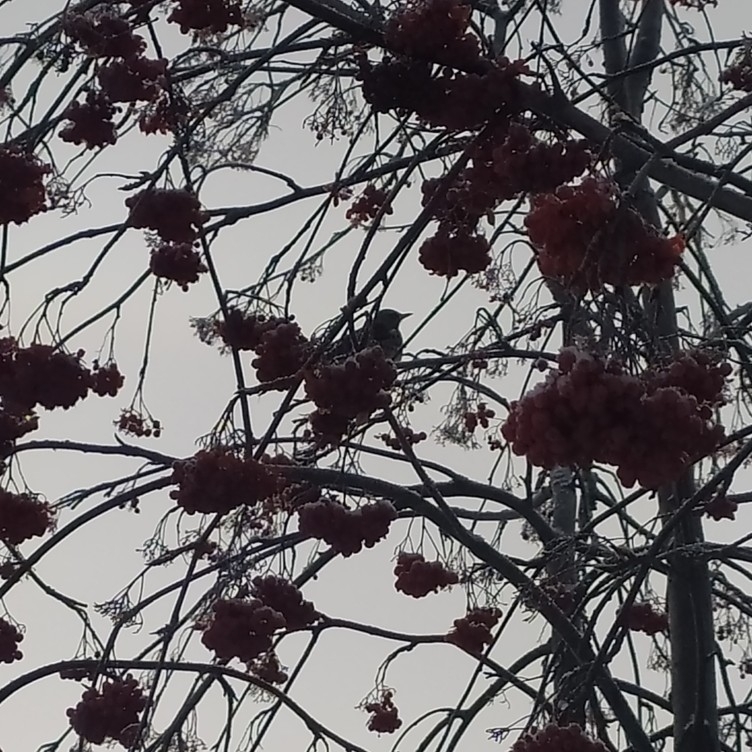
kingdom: Animalia
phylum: Chordata
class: Aves
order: Passeriformes
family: Turdidae
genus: Turdus
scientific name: Turdus pilaris
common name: Fieldfare
